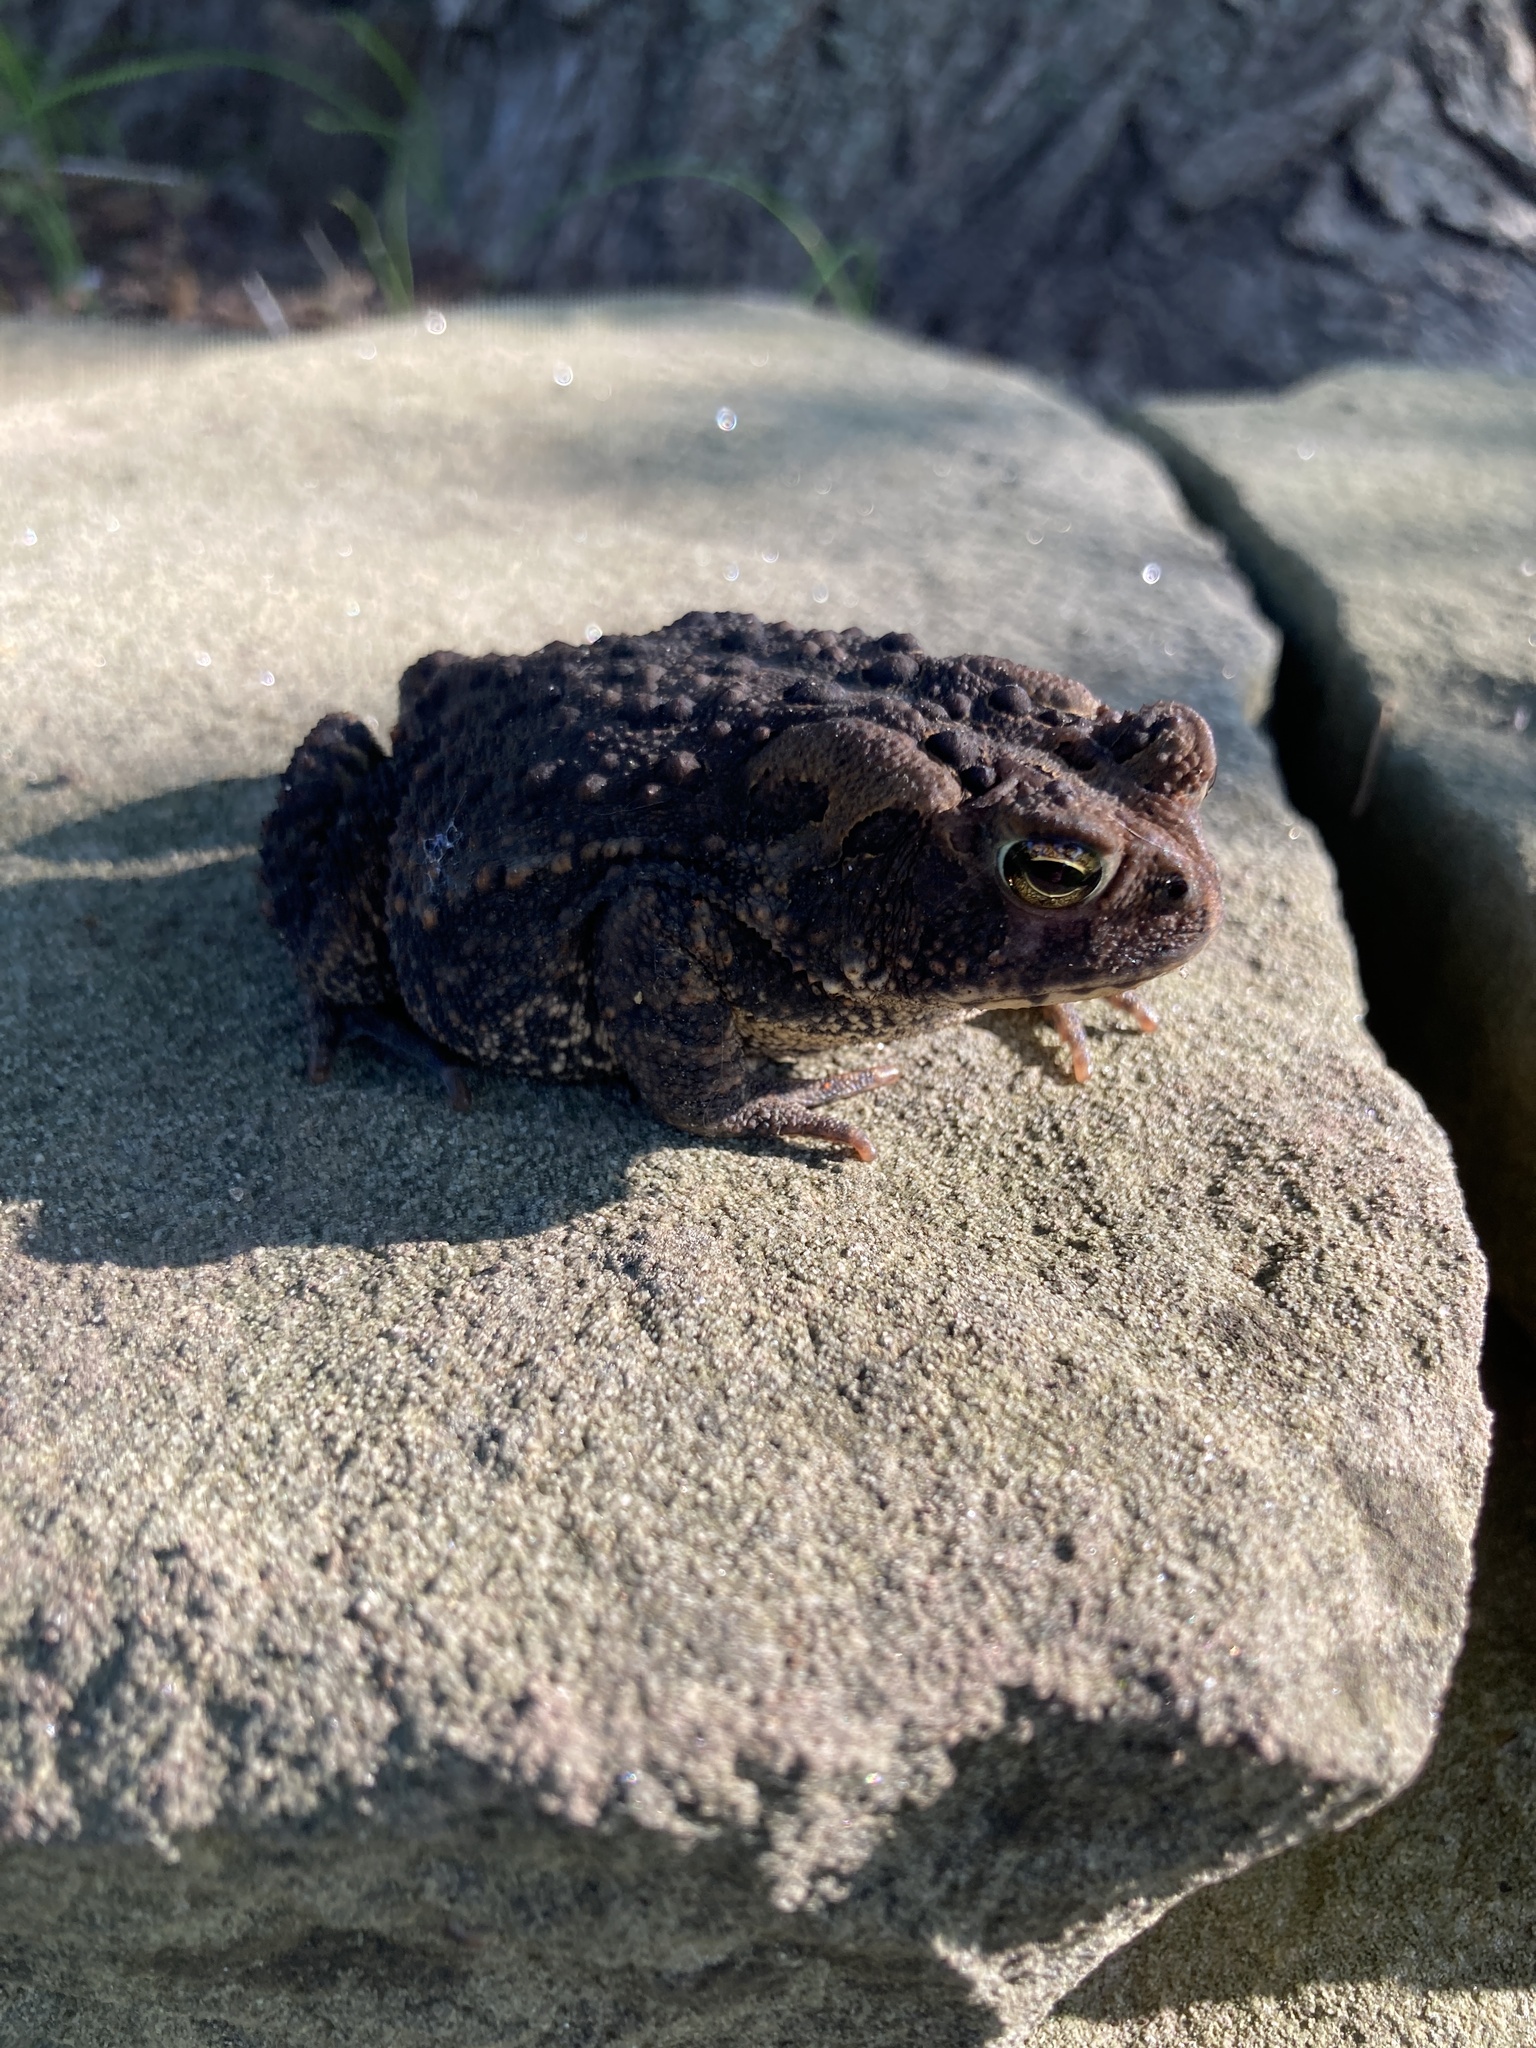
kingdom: Animalia
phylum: Chordata
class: Amphibia
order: Anura
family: Bufonidae
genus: Anaxyrus
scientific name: Anaxyrus americanus
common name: American toad
